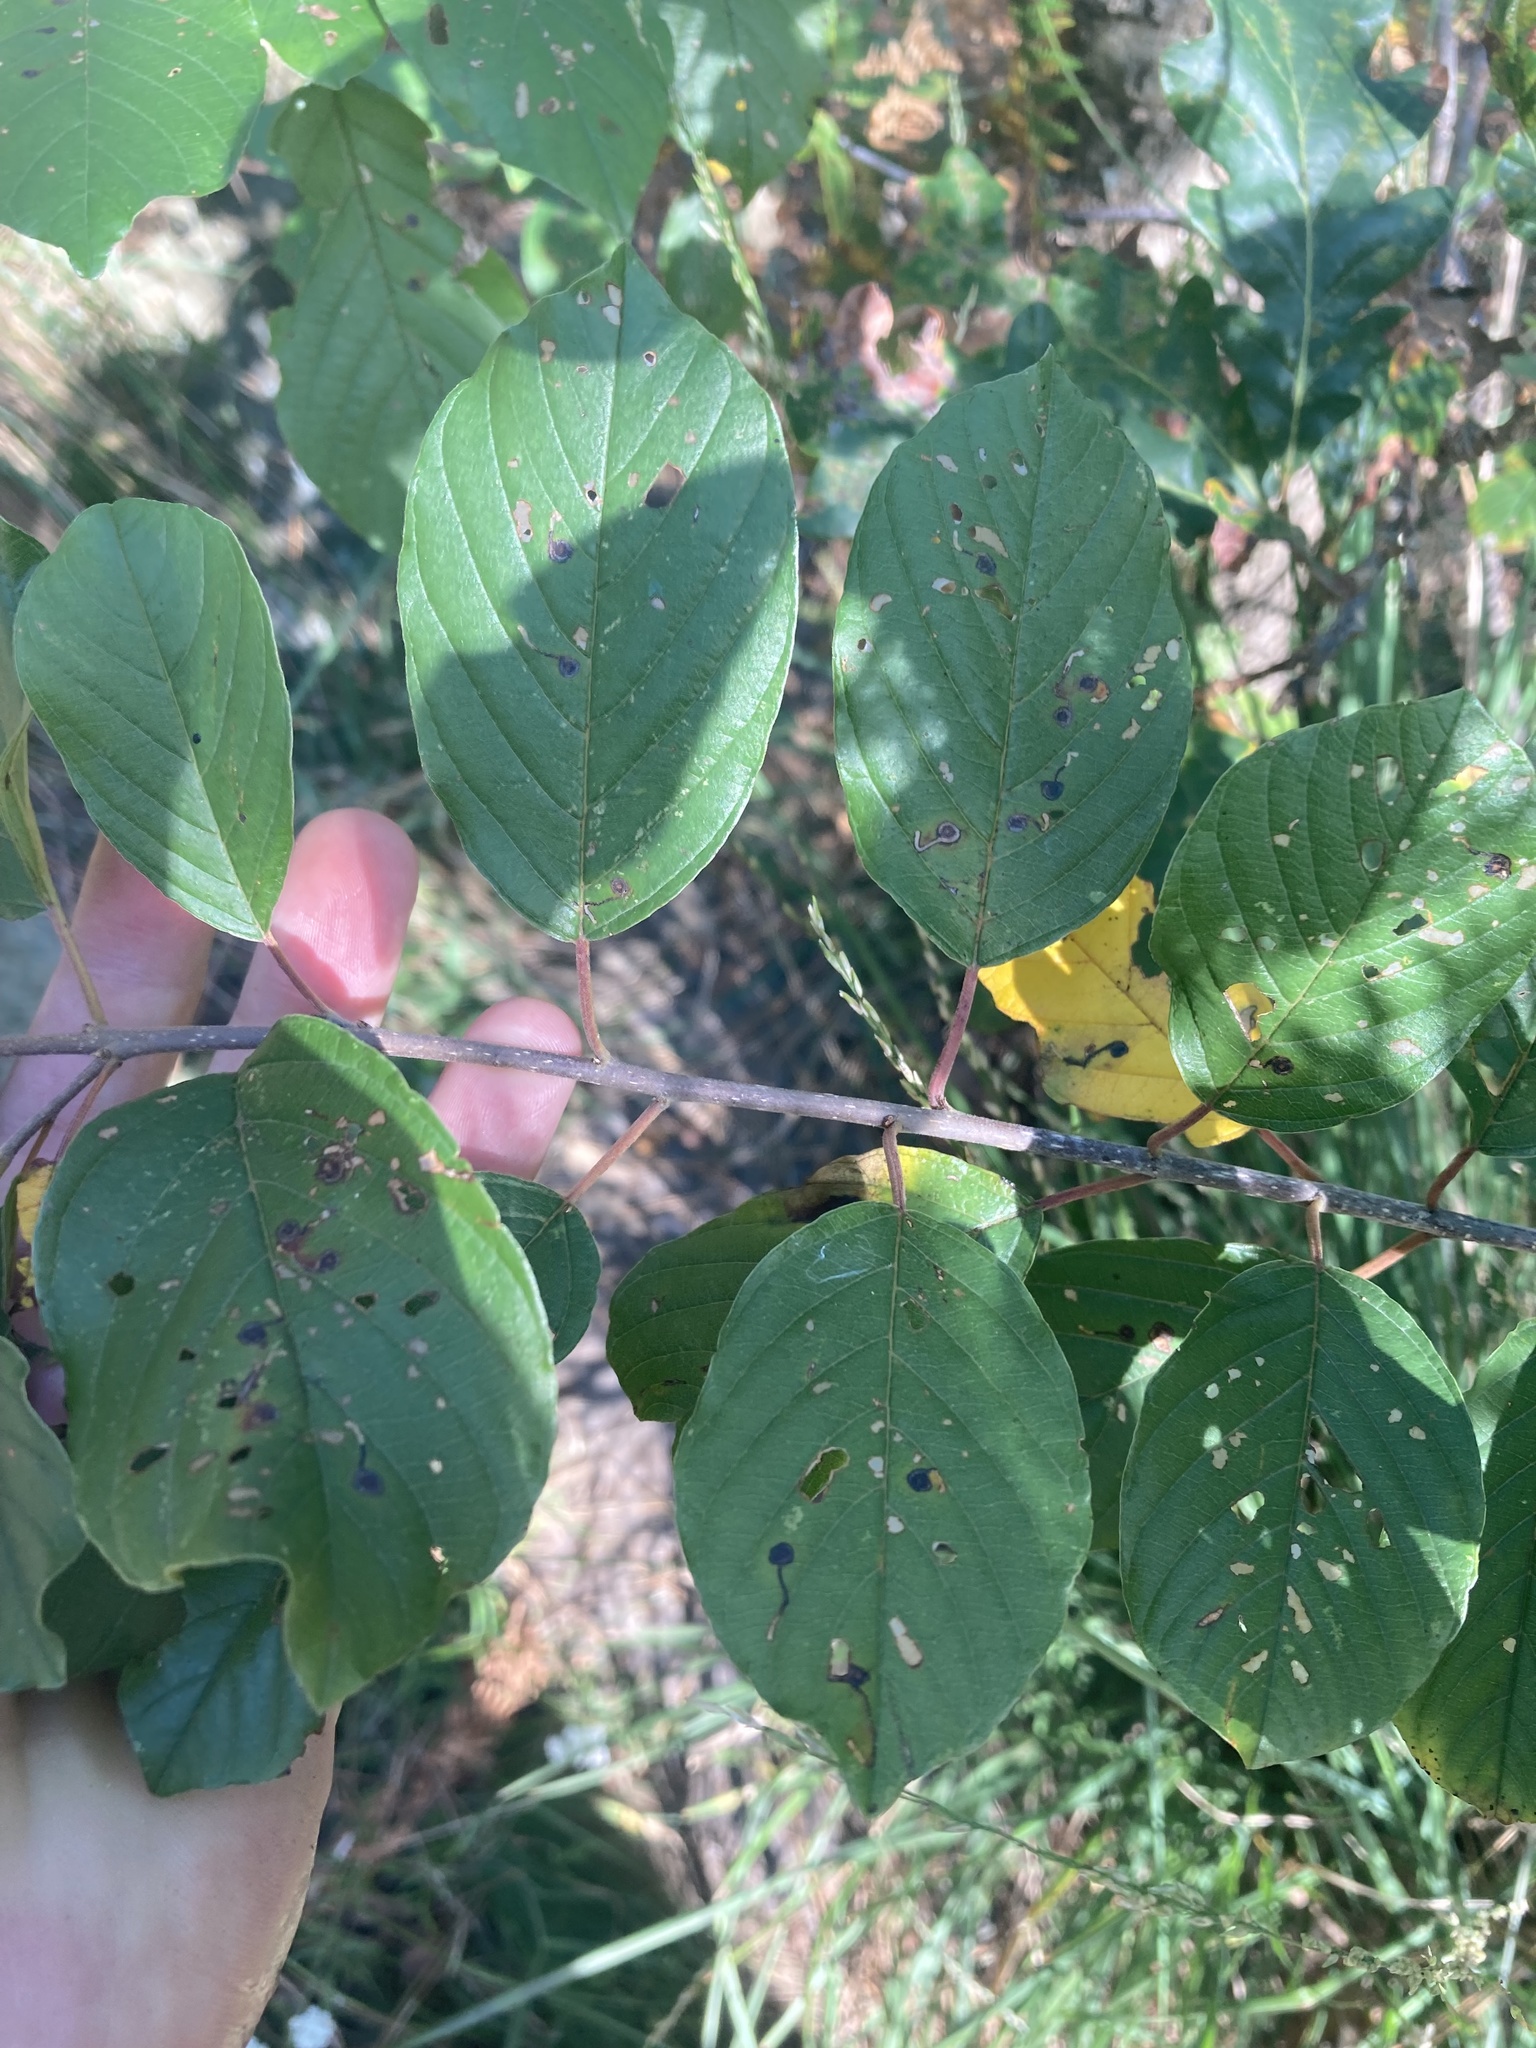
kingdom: Plantae
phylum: Tracheophyta
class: Magnoliopsida
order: Rosales
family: Rhamnaceae
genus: Frangula
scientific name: Frangula alnus
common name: Alder buckthorn
